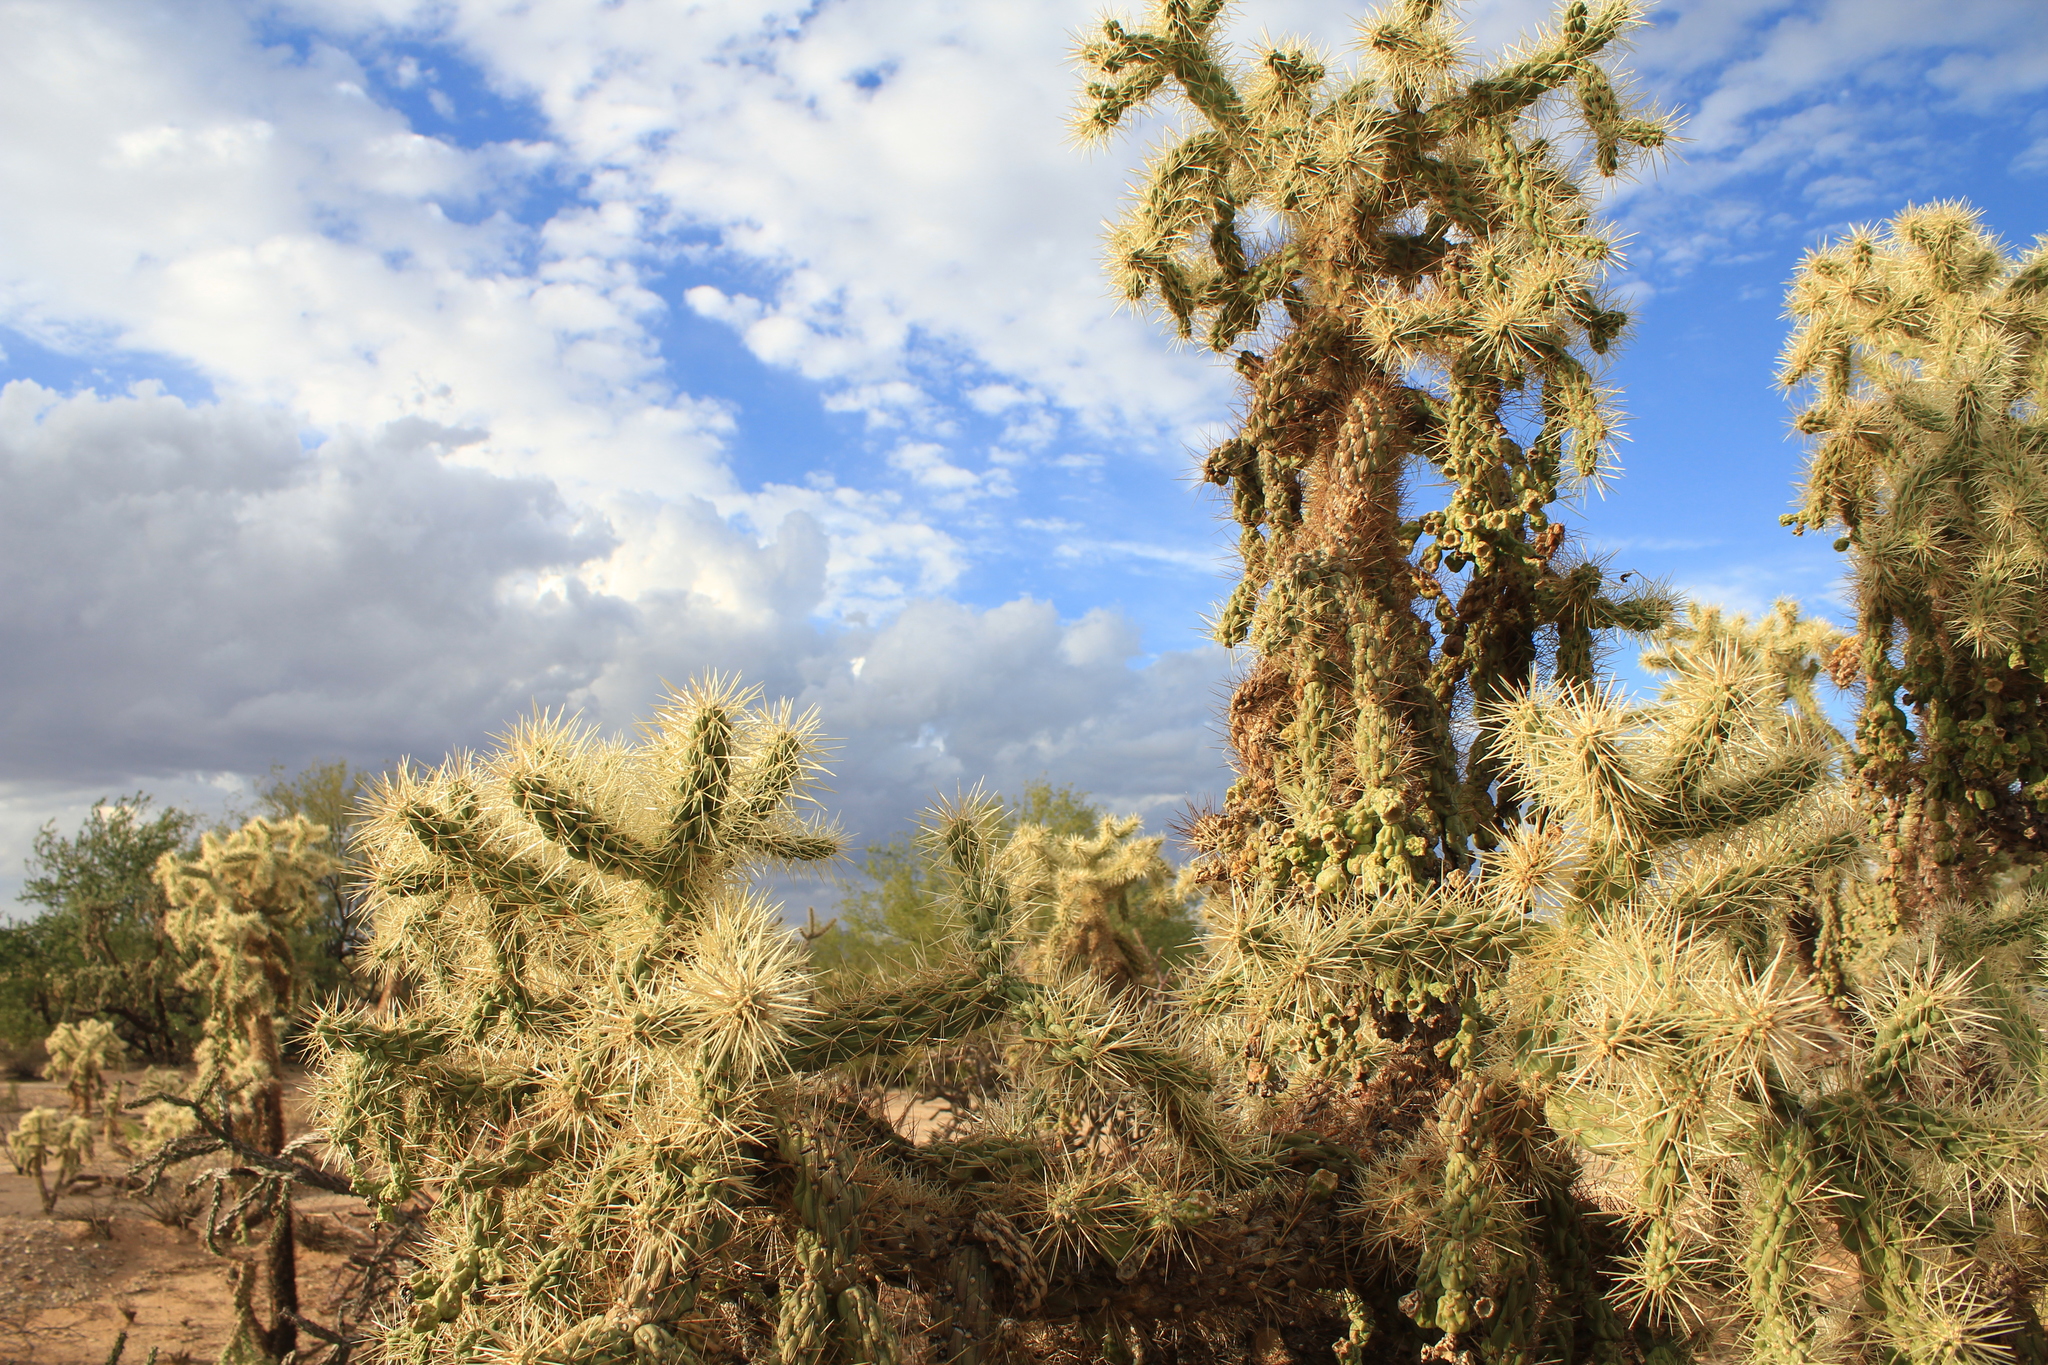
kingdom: Plantae
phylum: Tracheophyta
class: Magnoliopsida
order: Caryophyllales
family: Cactaceae
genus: Cylindropuntia
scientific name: Cylindropuntia fulgida
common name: Jumping cholla
